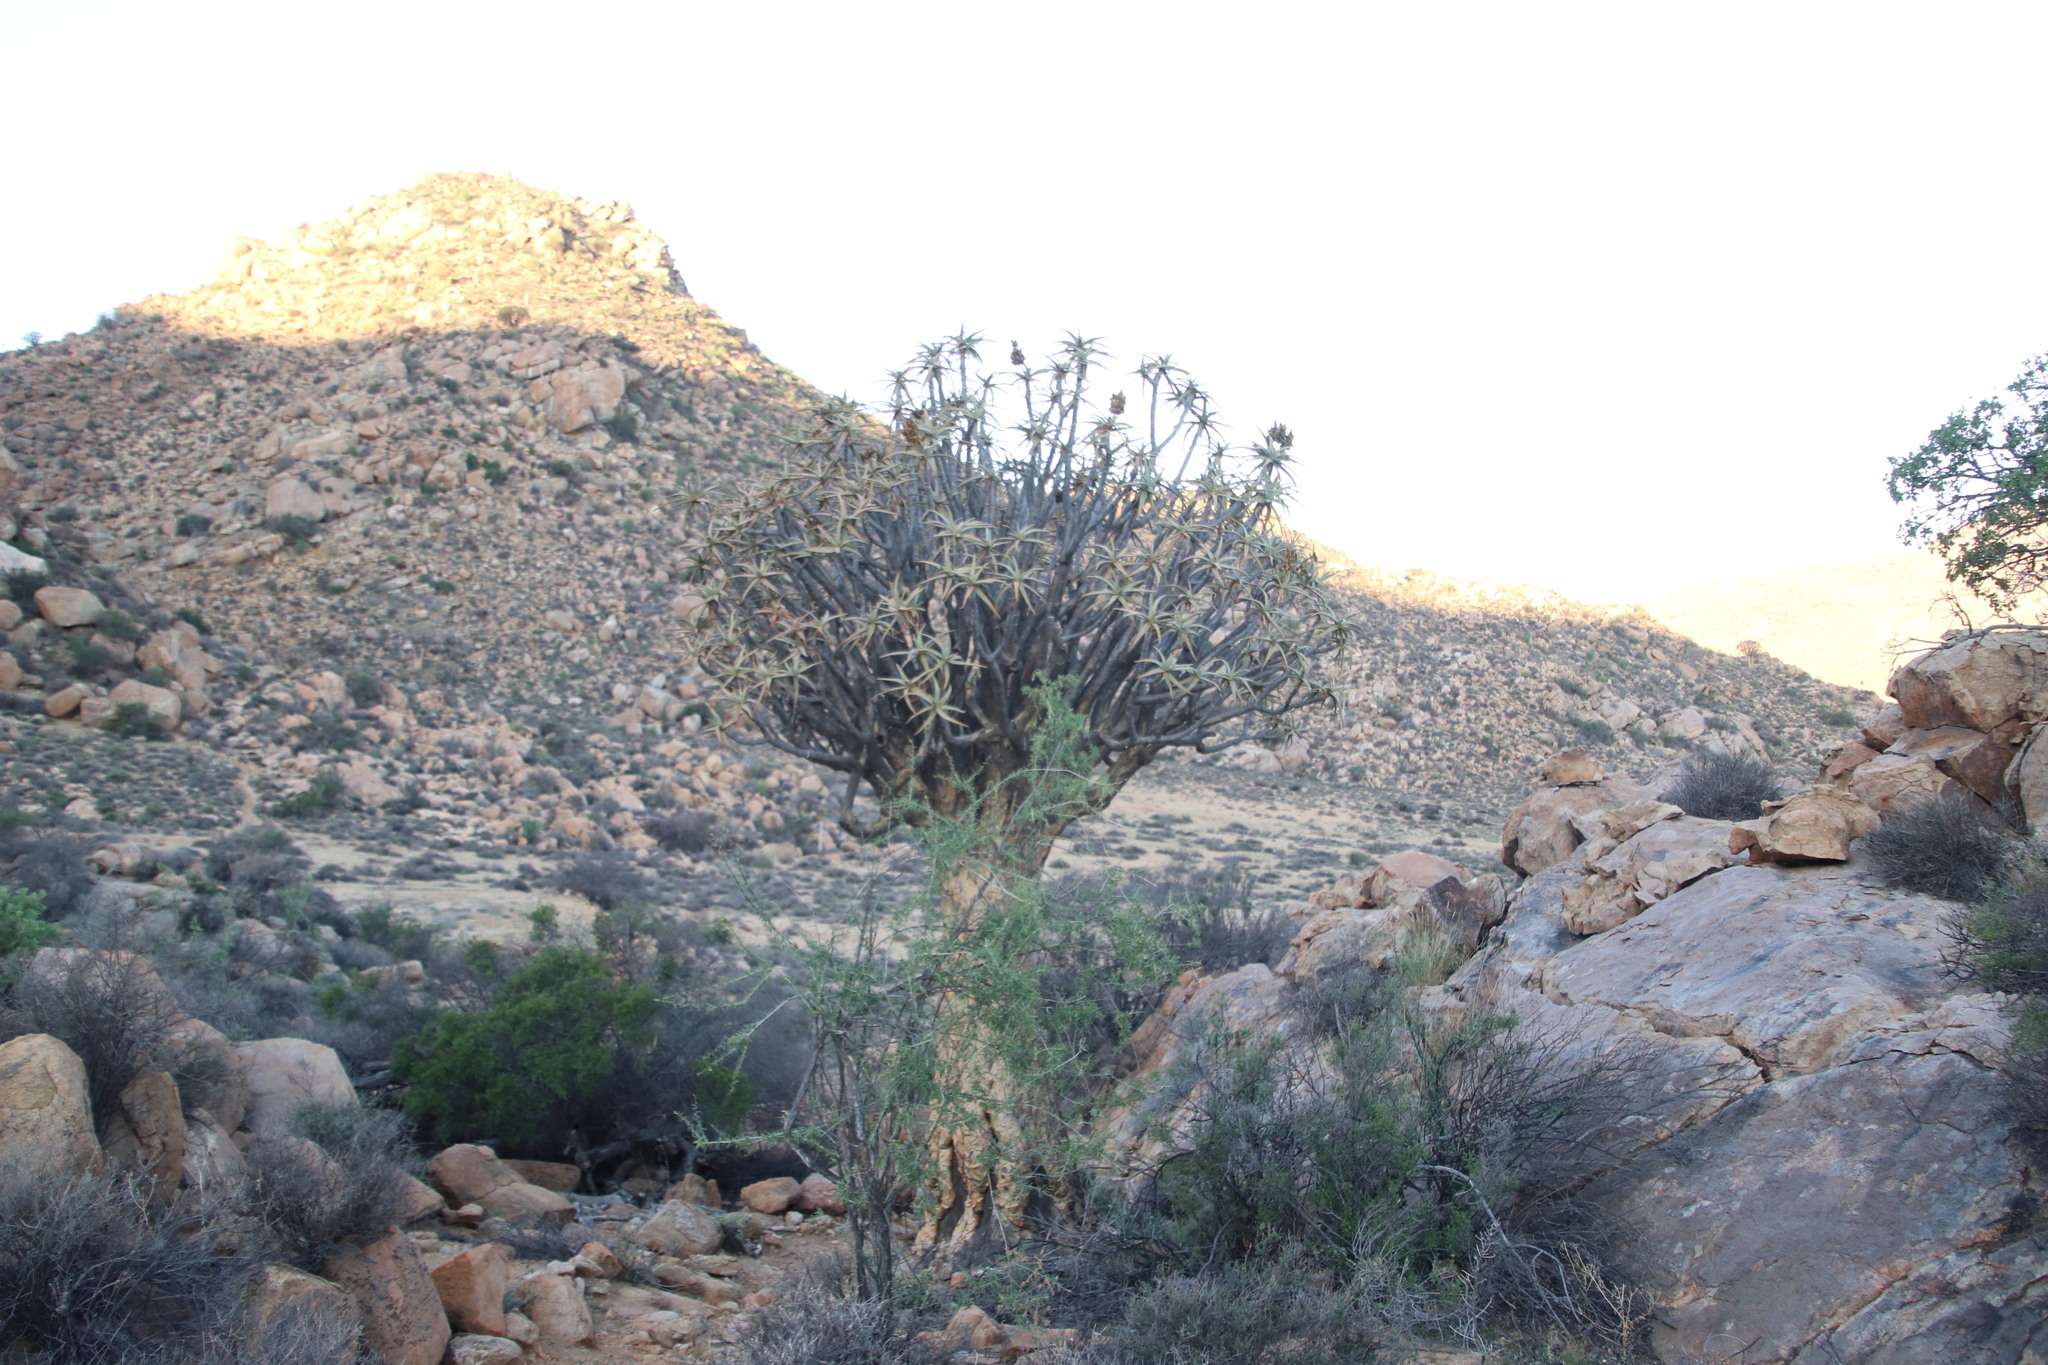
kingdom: Plantae
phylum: Tracheophyta
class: Liliopsida
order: Asparagales
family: Asphodelaceae
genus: Aloidendron
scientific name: Aloidendron dichotomum
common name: Quiver tree
